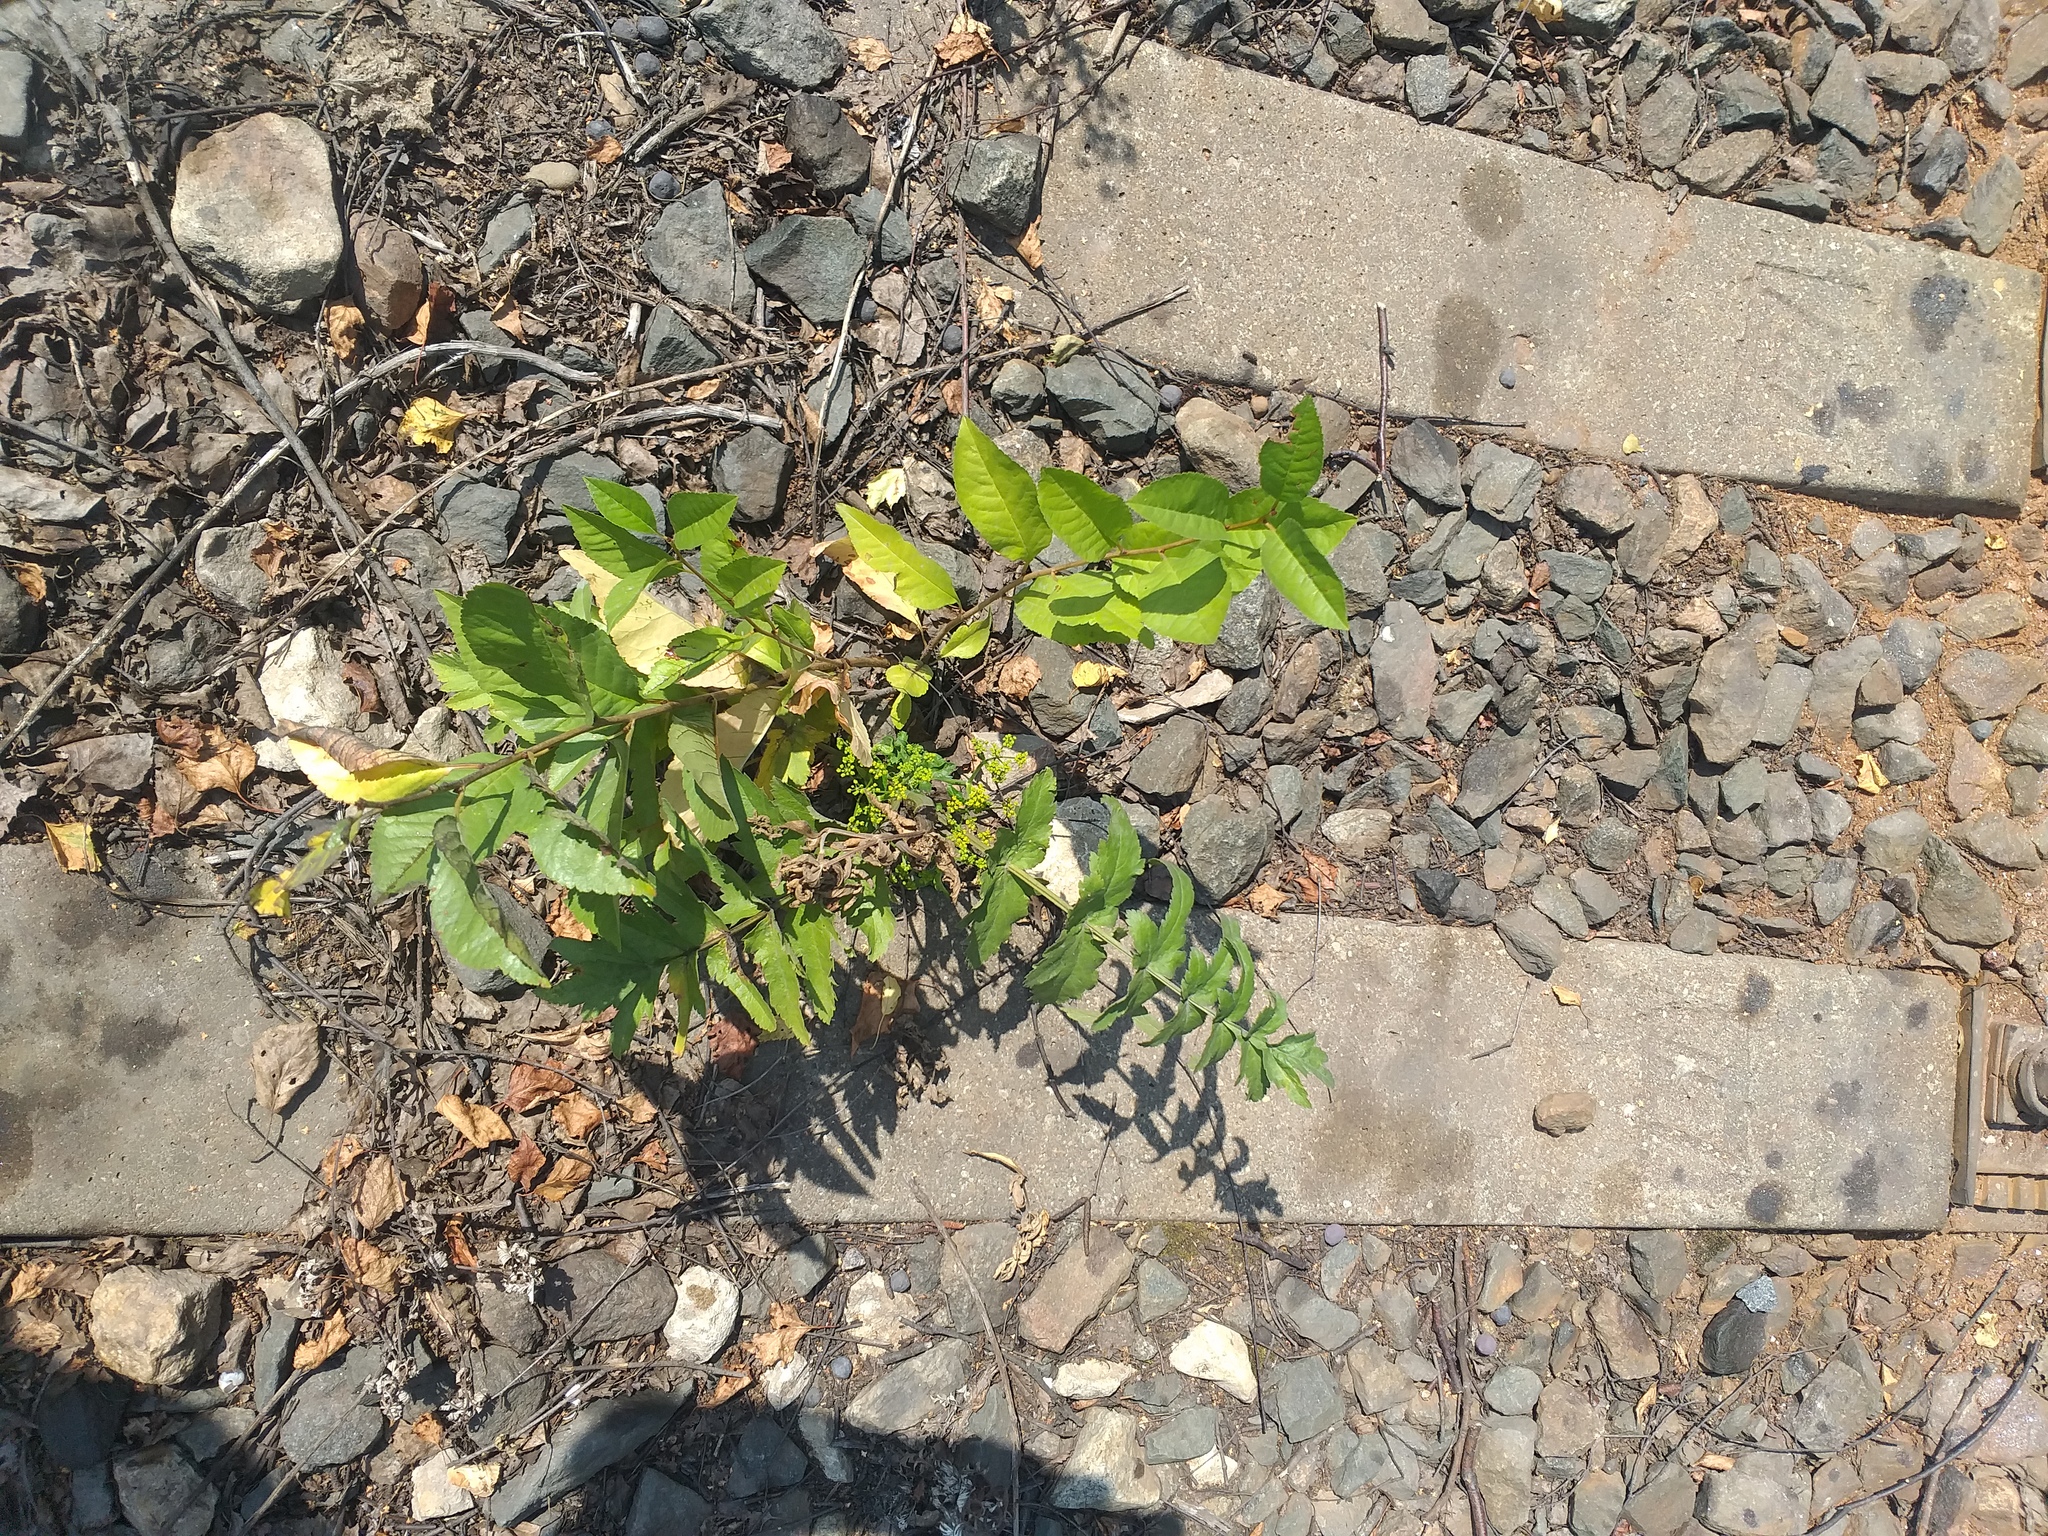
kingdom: Plantae
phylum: Tracheophyta
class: Magnoliopsida
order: Apiales
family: Apiaceae
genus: Pastinaca
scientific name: Pastinaca sativa
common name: Wild parsnip
